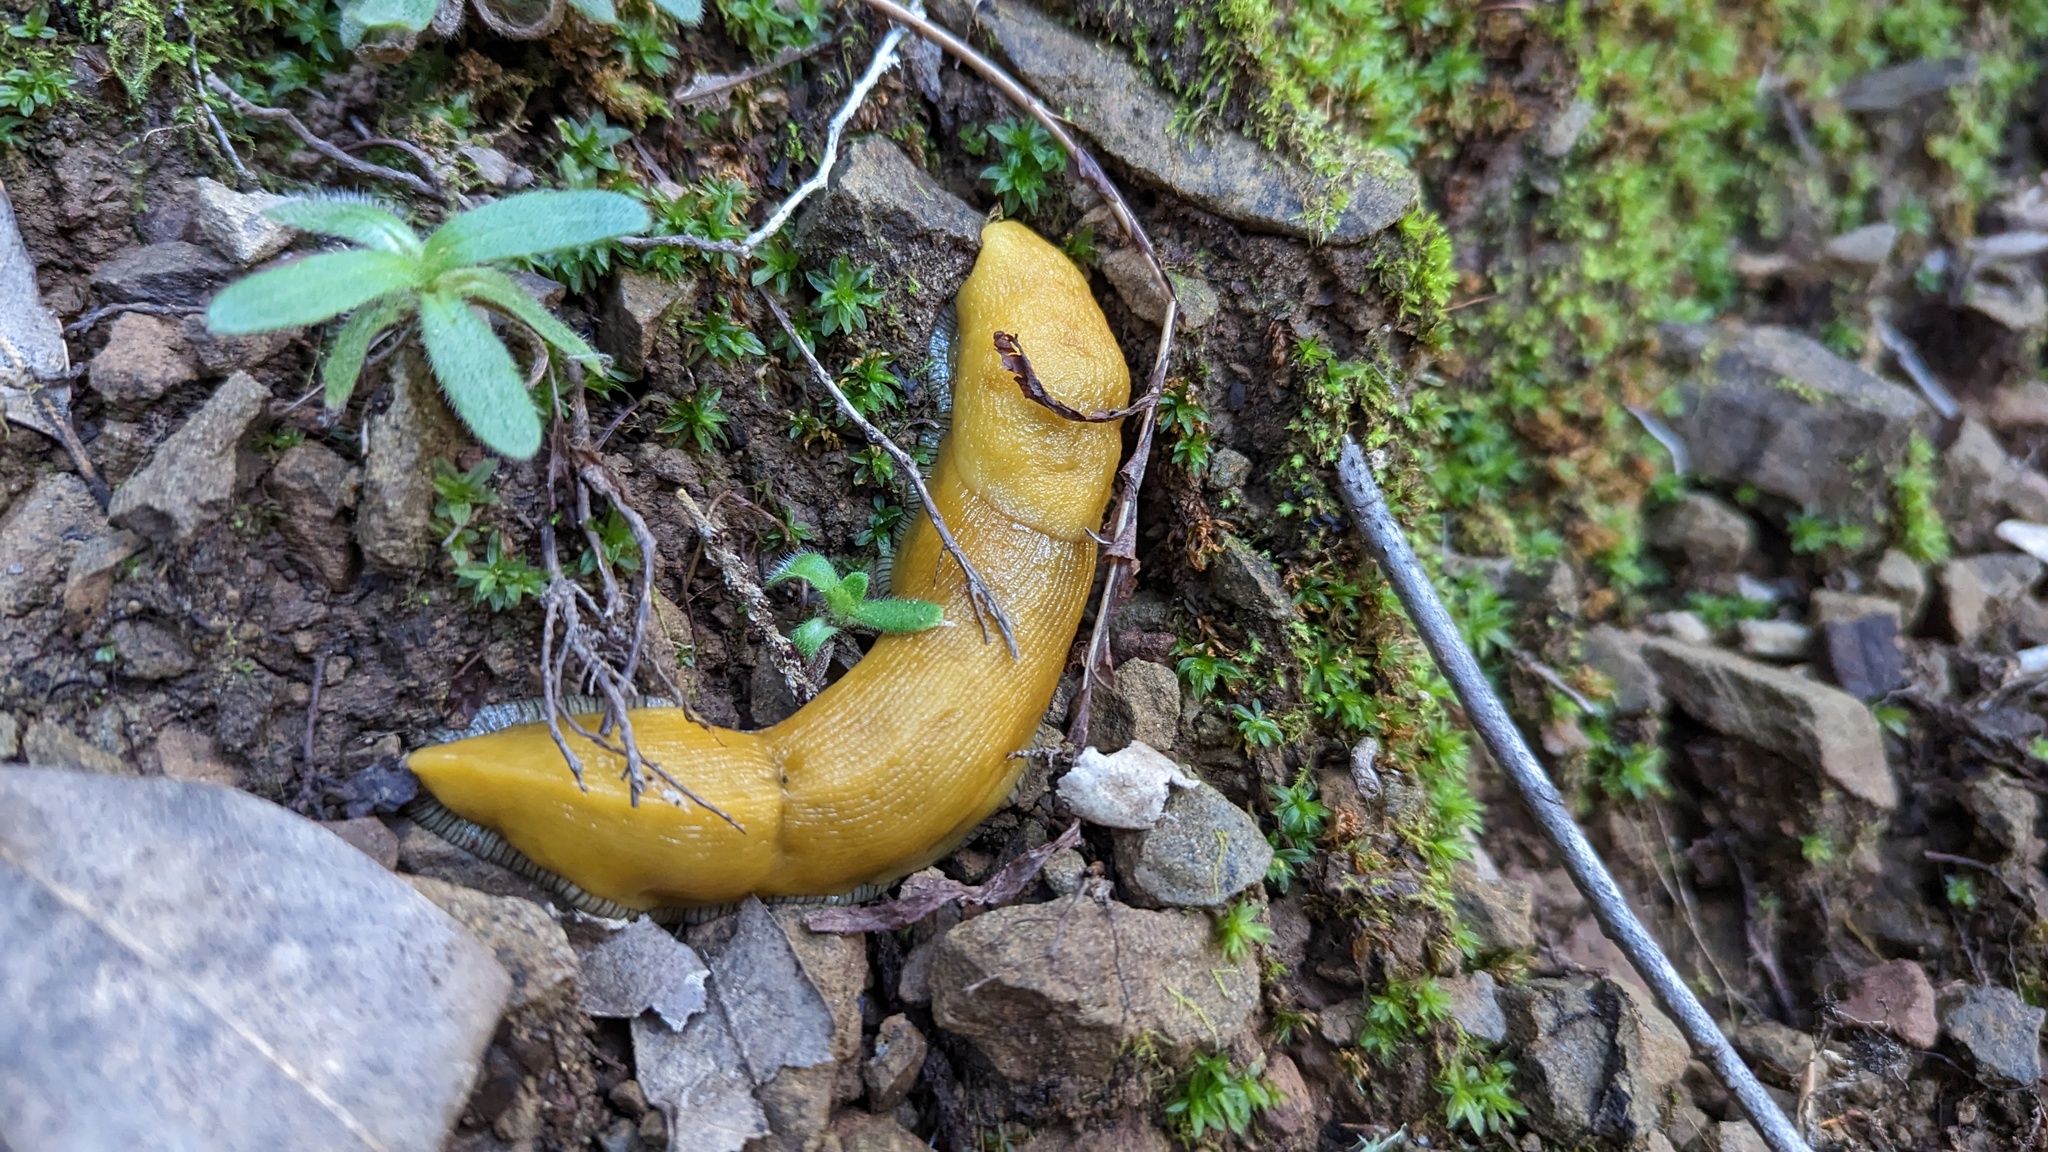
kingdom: Animalia
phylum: Mollusca
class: Gastropoda
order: Stylommatophora
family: Ariolimacidae
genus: Ariolimax
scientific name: Ariolimax stramineus
